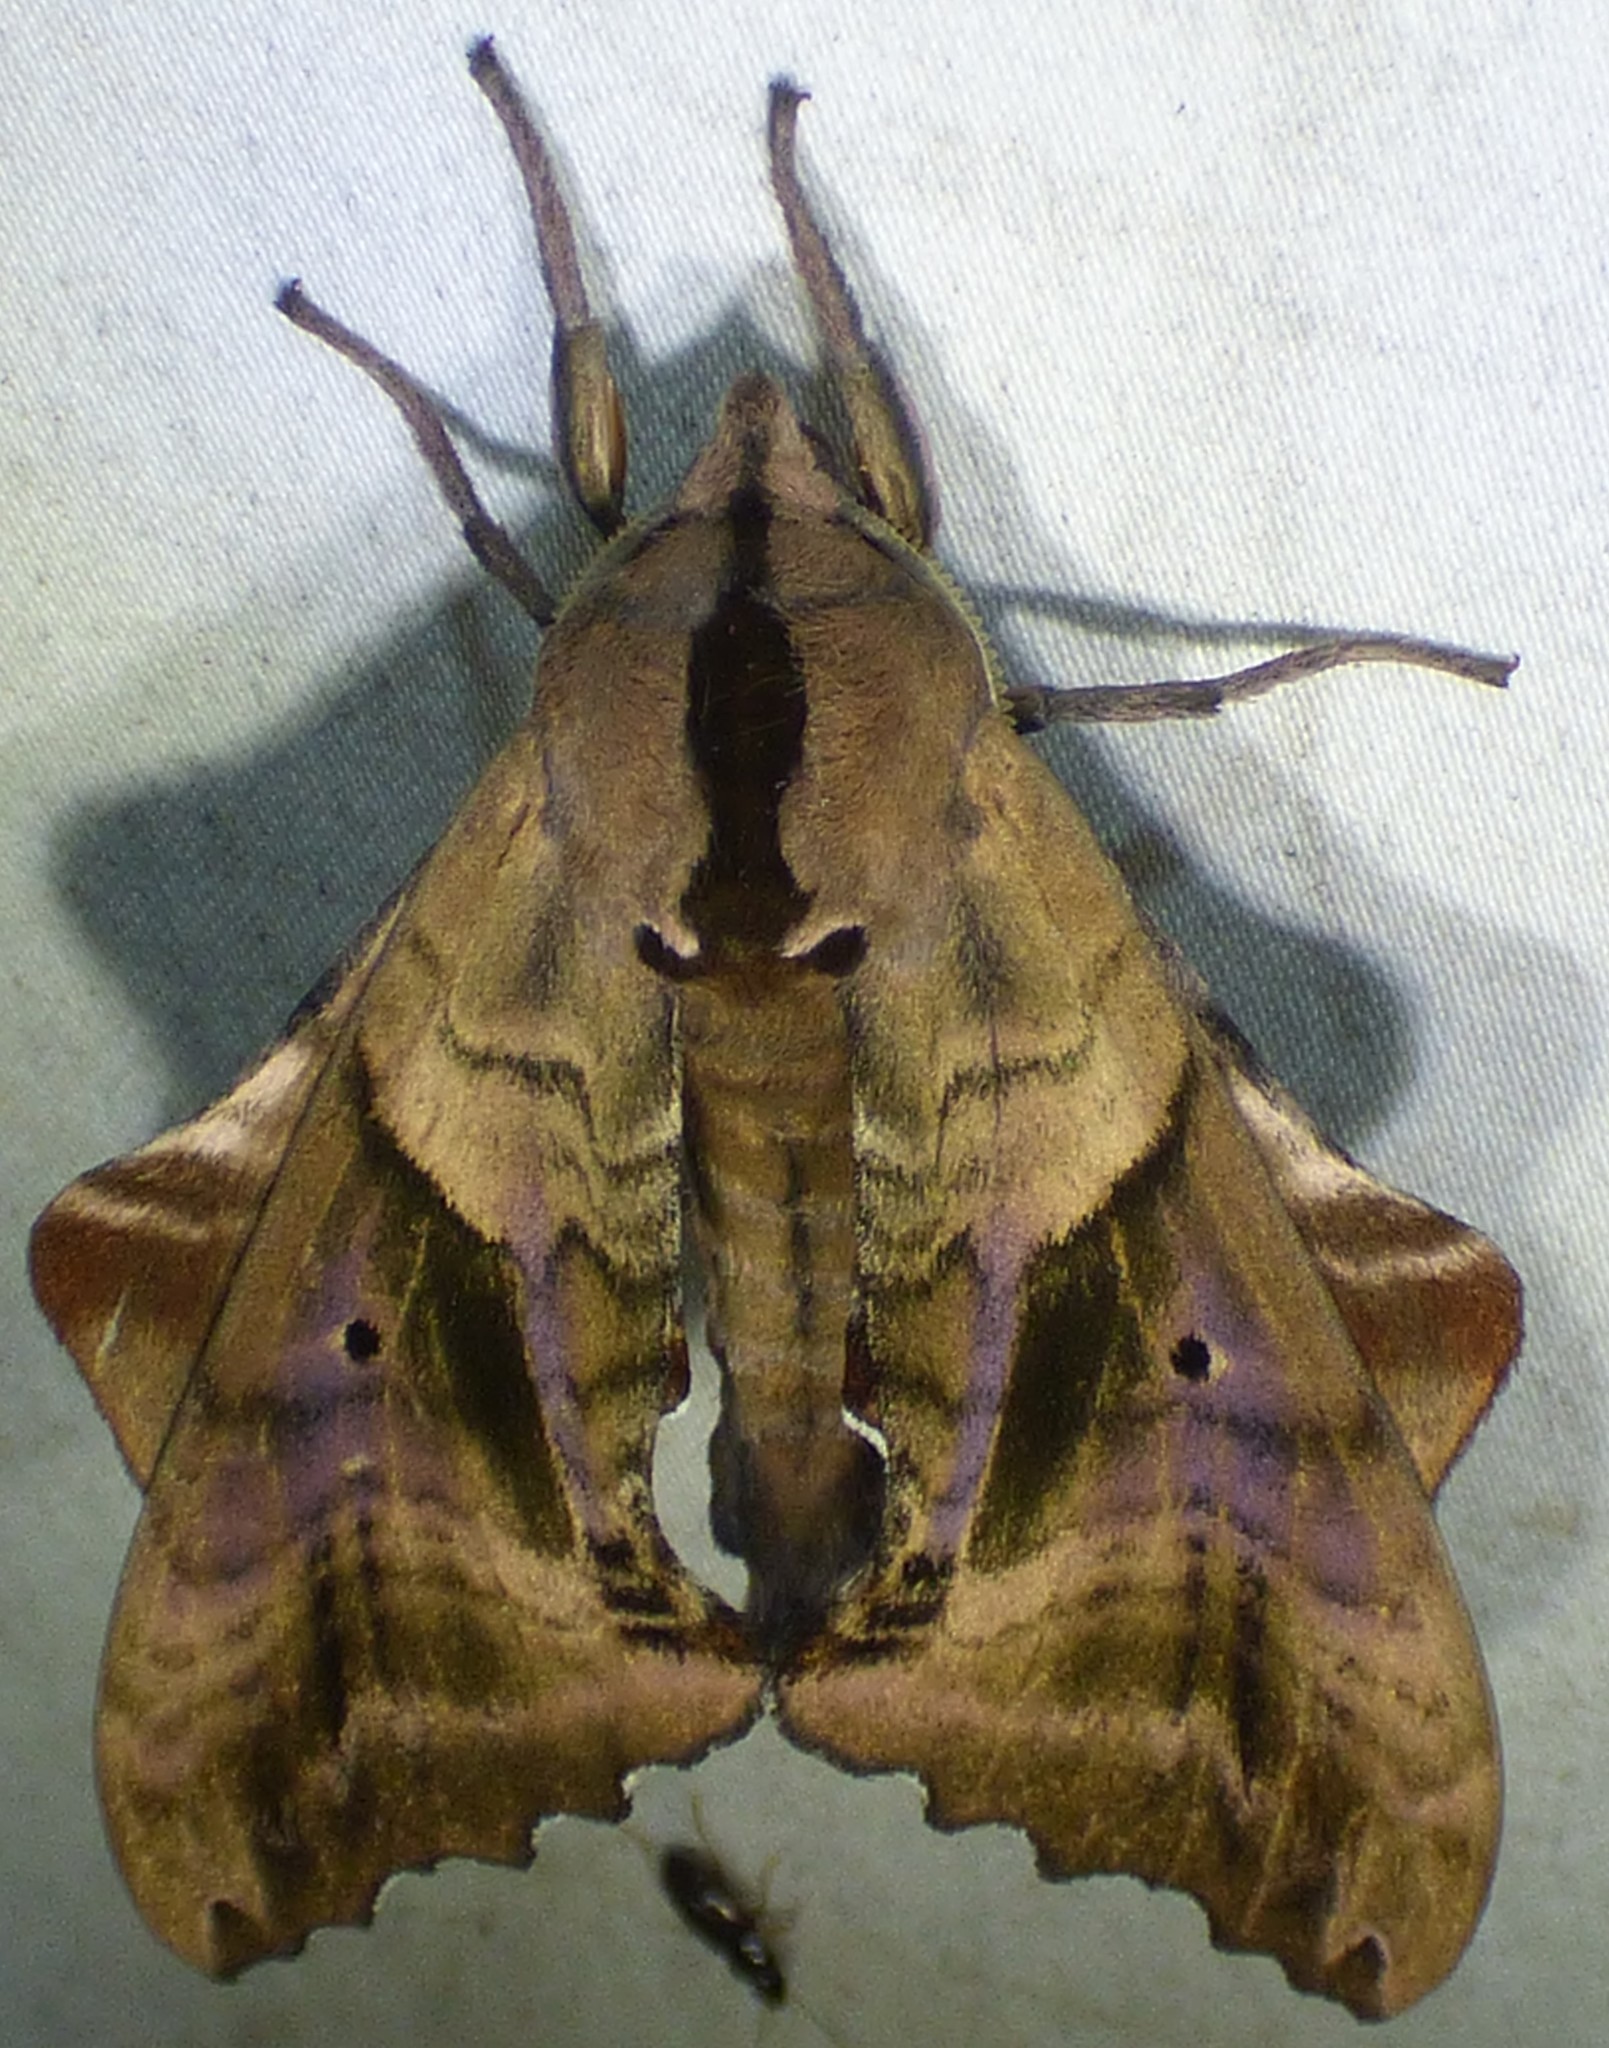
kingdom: Animalia
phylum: Arthropoda
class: Insecta
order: Lepidoptera
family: Sphingidae
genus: Paonias
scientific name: Paonias excaecata
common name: Blind-eyed sphinx
